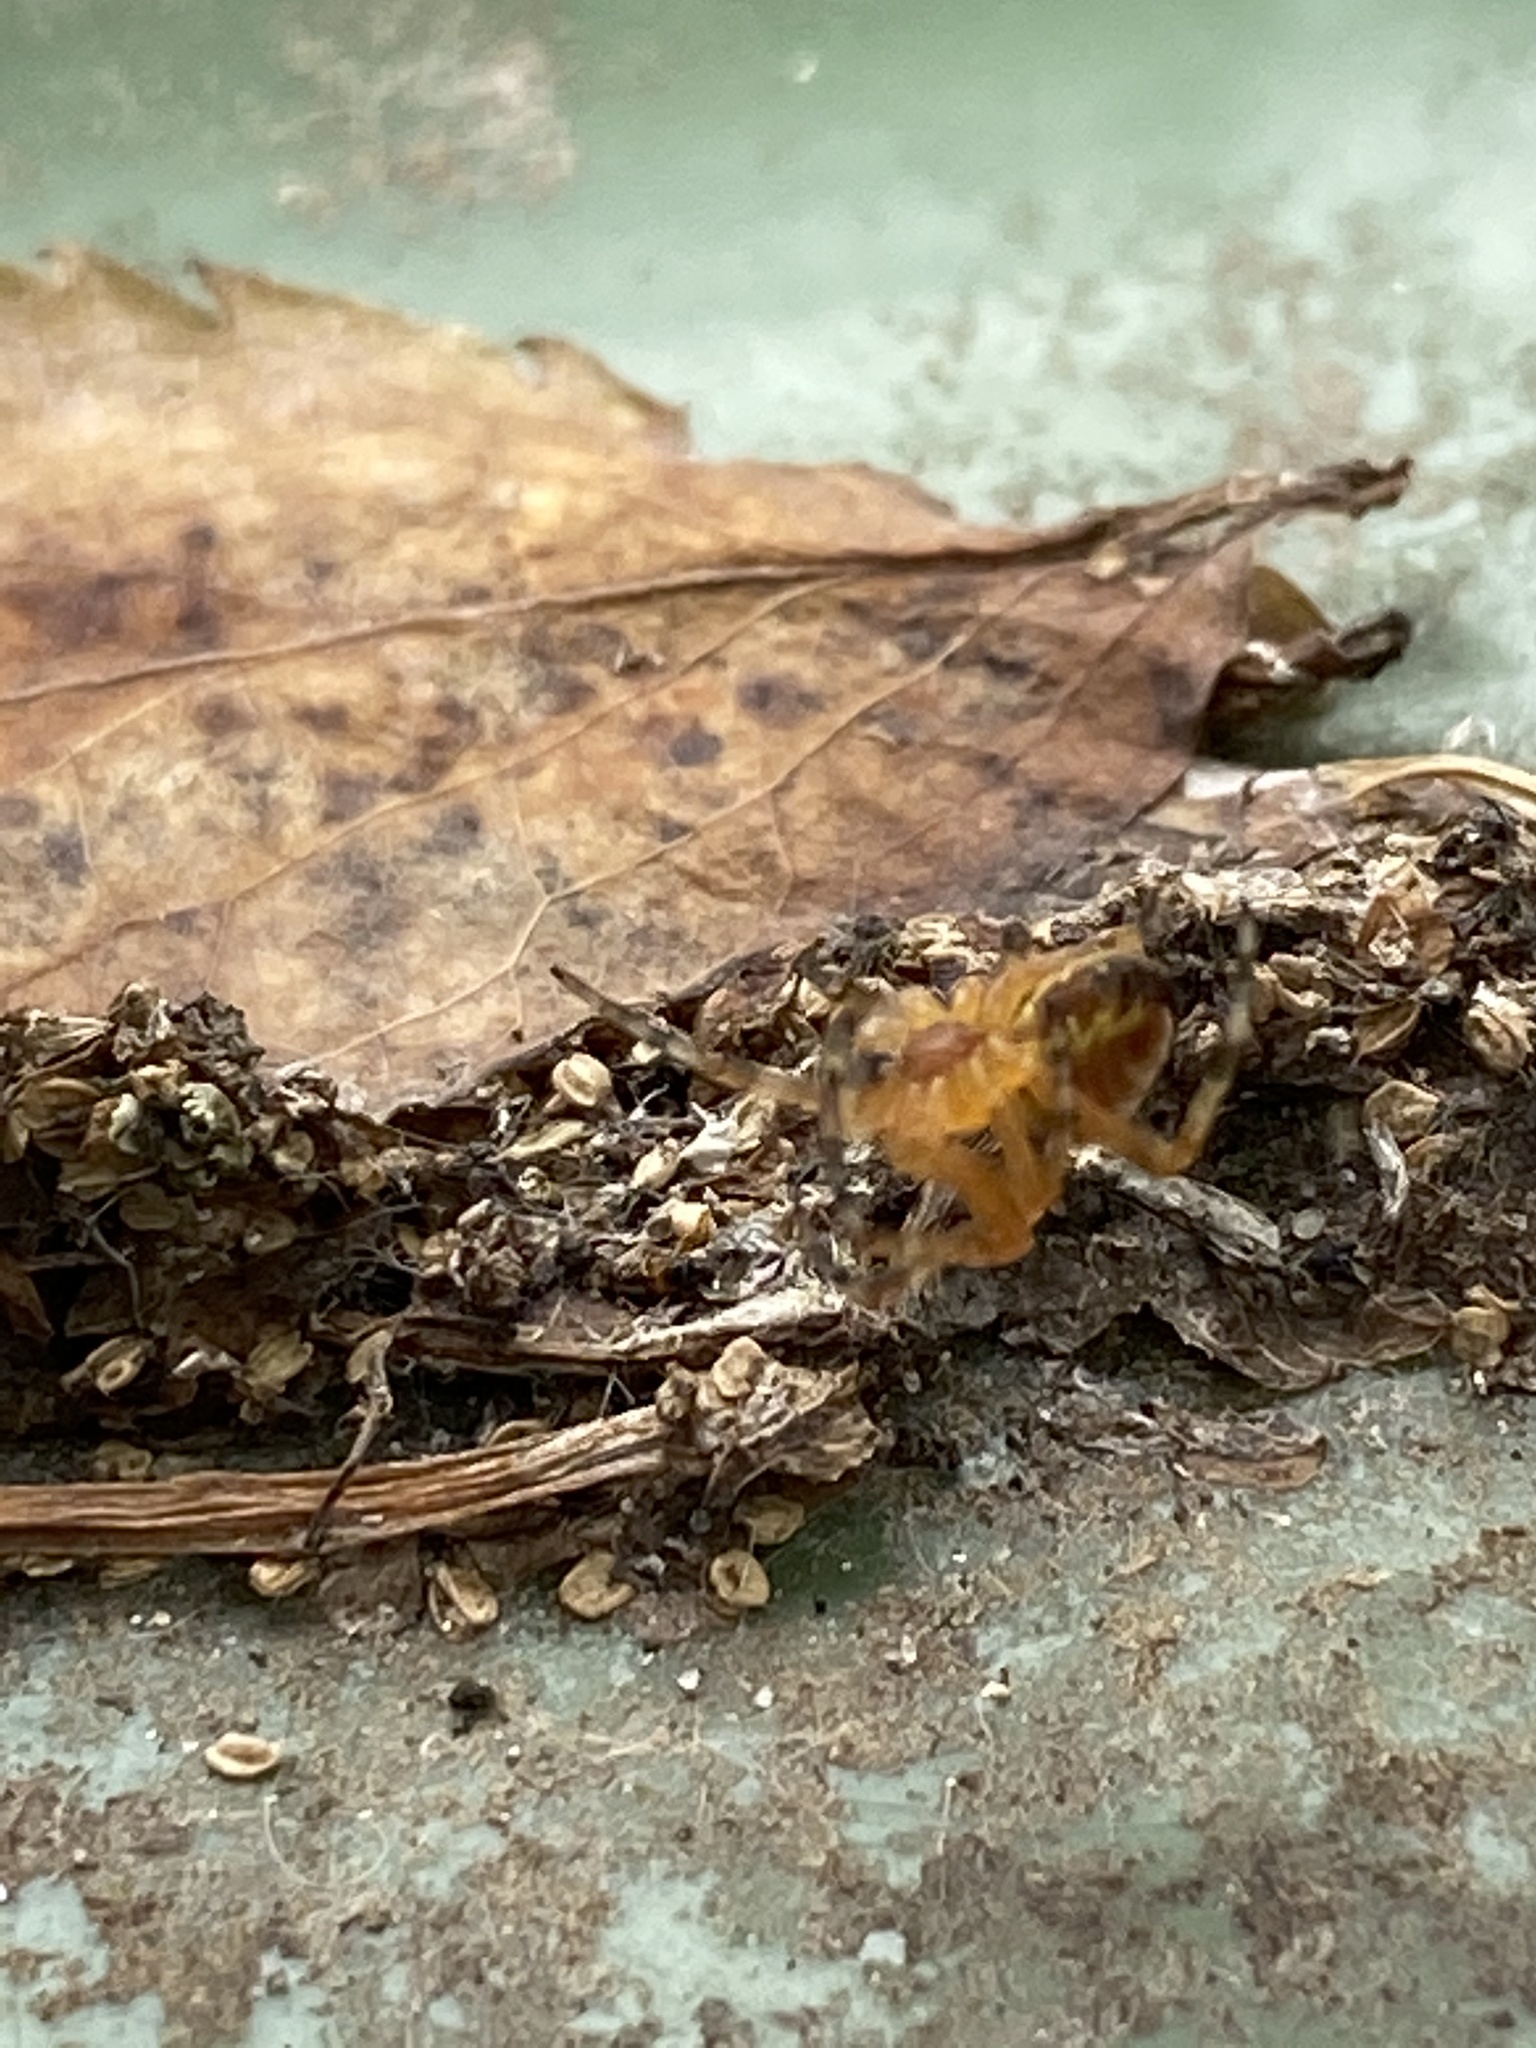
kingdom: Animalia
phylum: Arthropoda
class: Arachnida
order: Araneae
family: Araneidae
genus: Araneus
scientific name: Araneus diadematus
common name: Cross orbweaver
